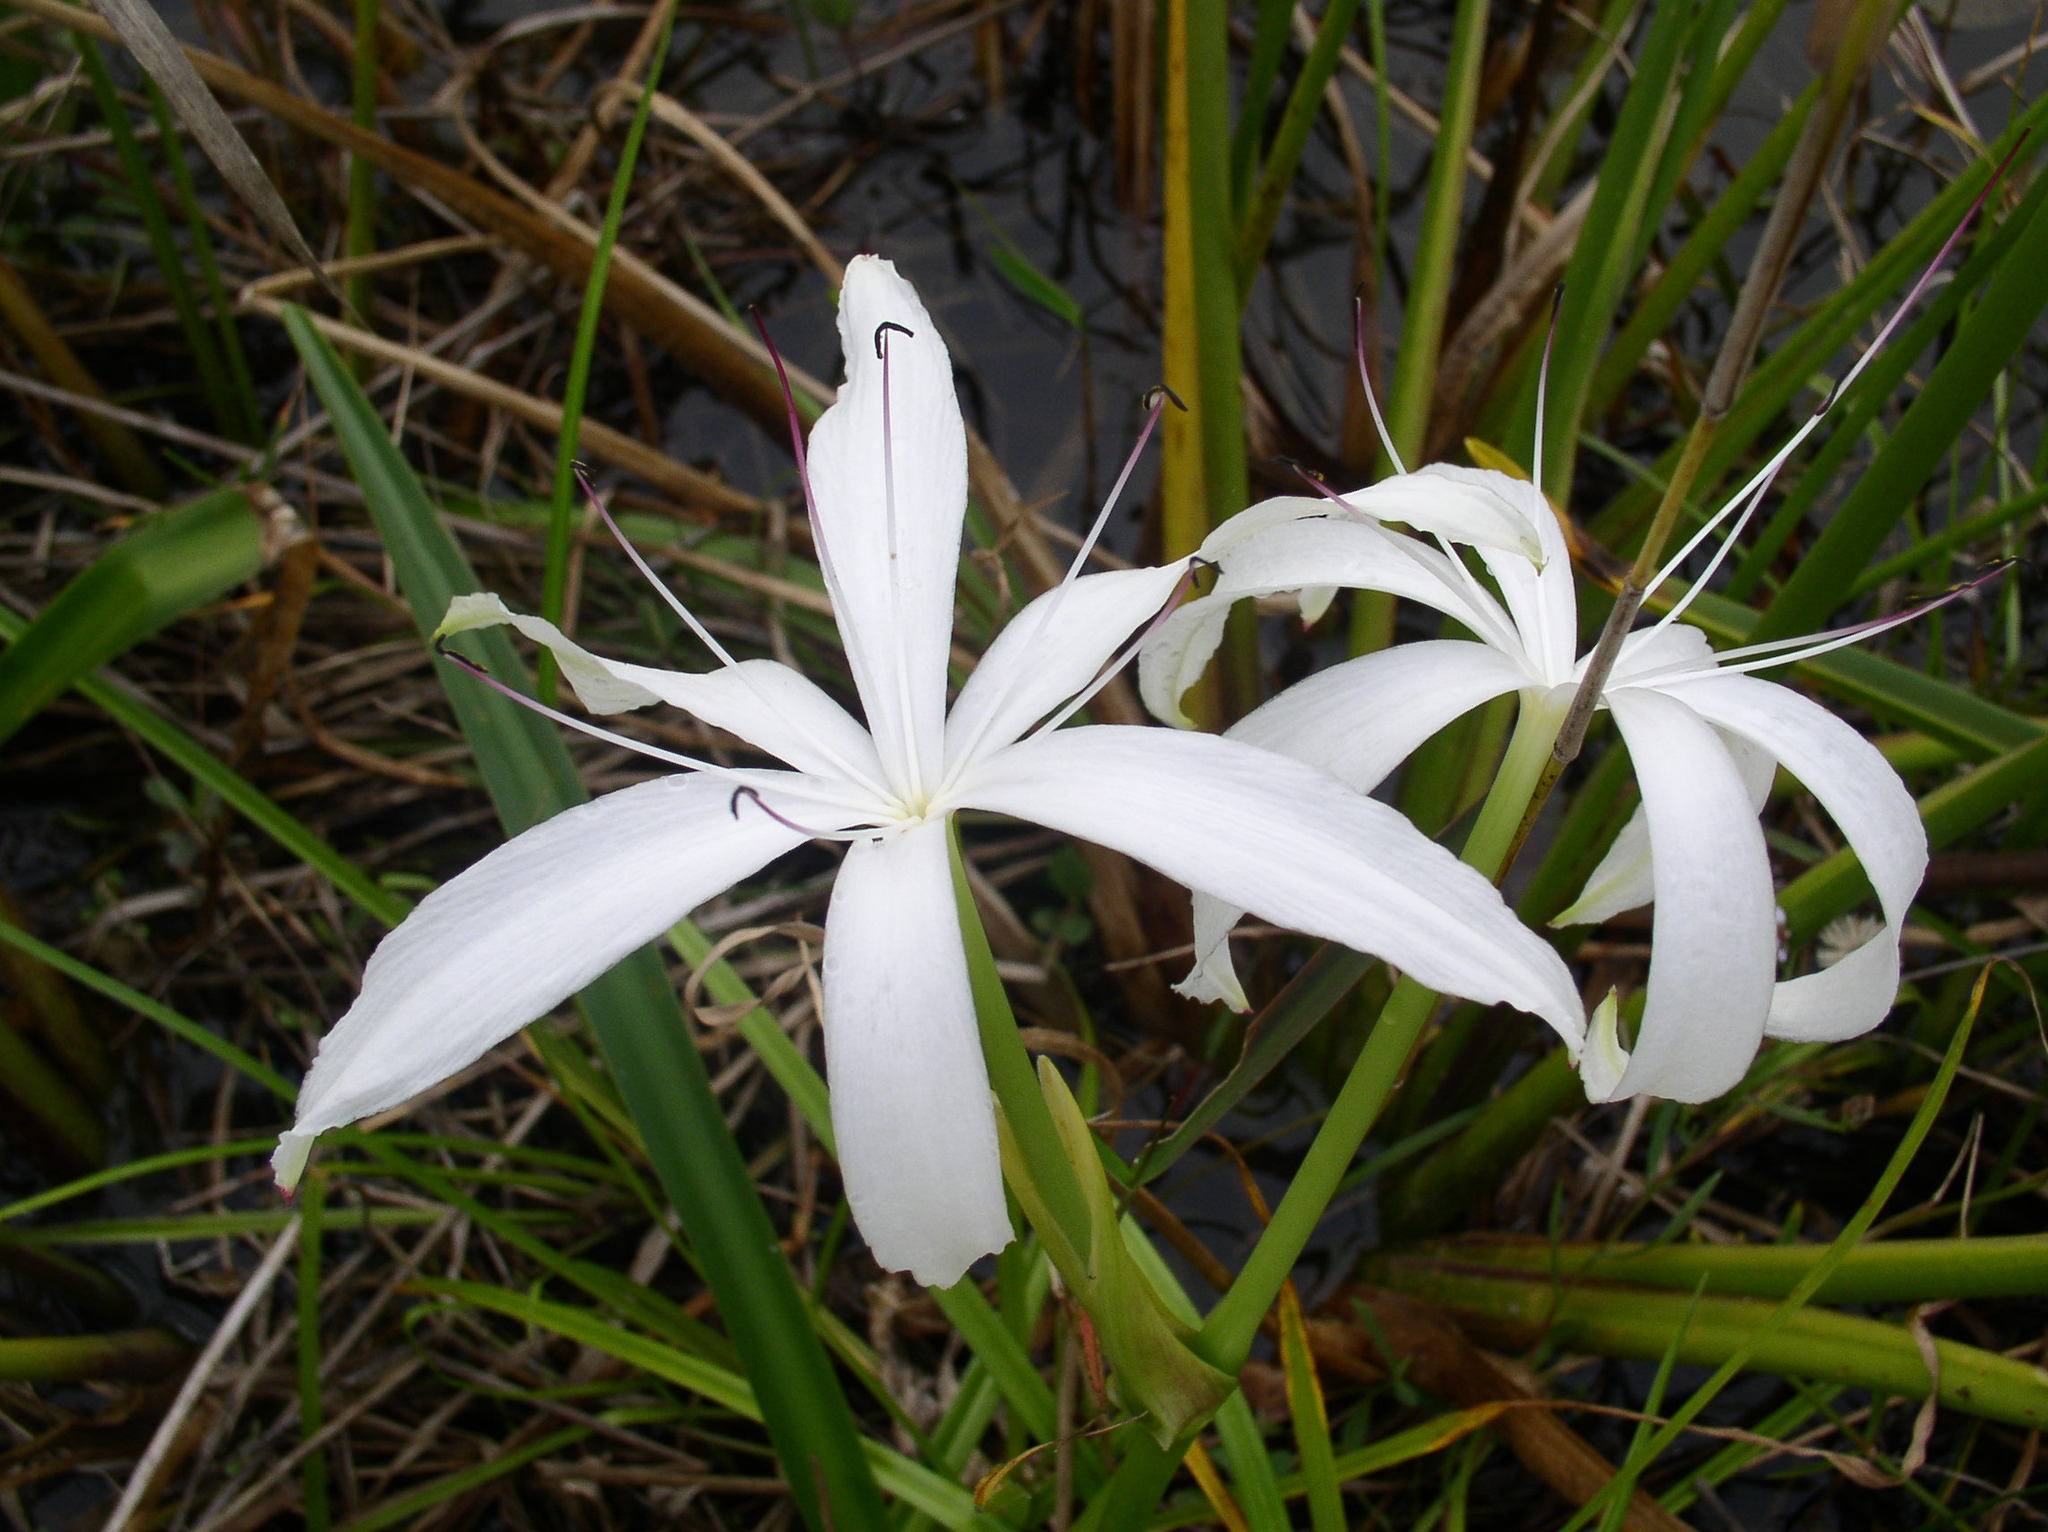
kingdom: Plantae
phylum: Tracheophyta
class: Liliopsida
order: Asparagales
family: Amaryllidaceae
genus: Crinum
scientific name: Crinum americanum
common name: Florida swamp-lily
